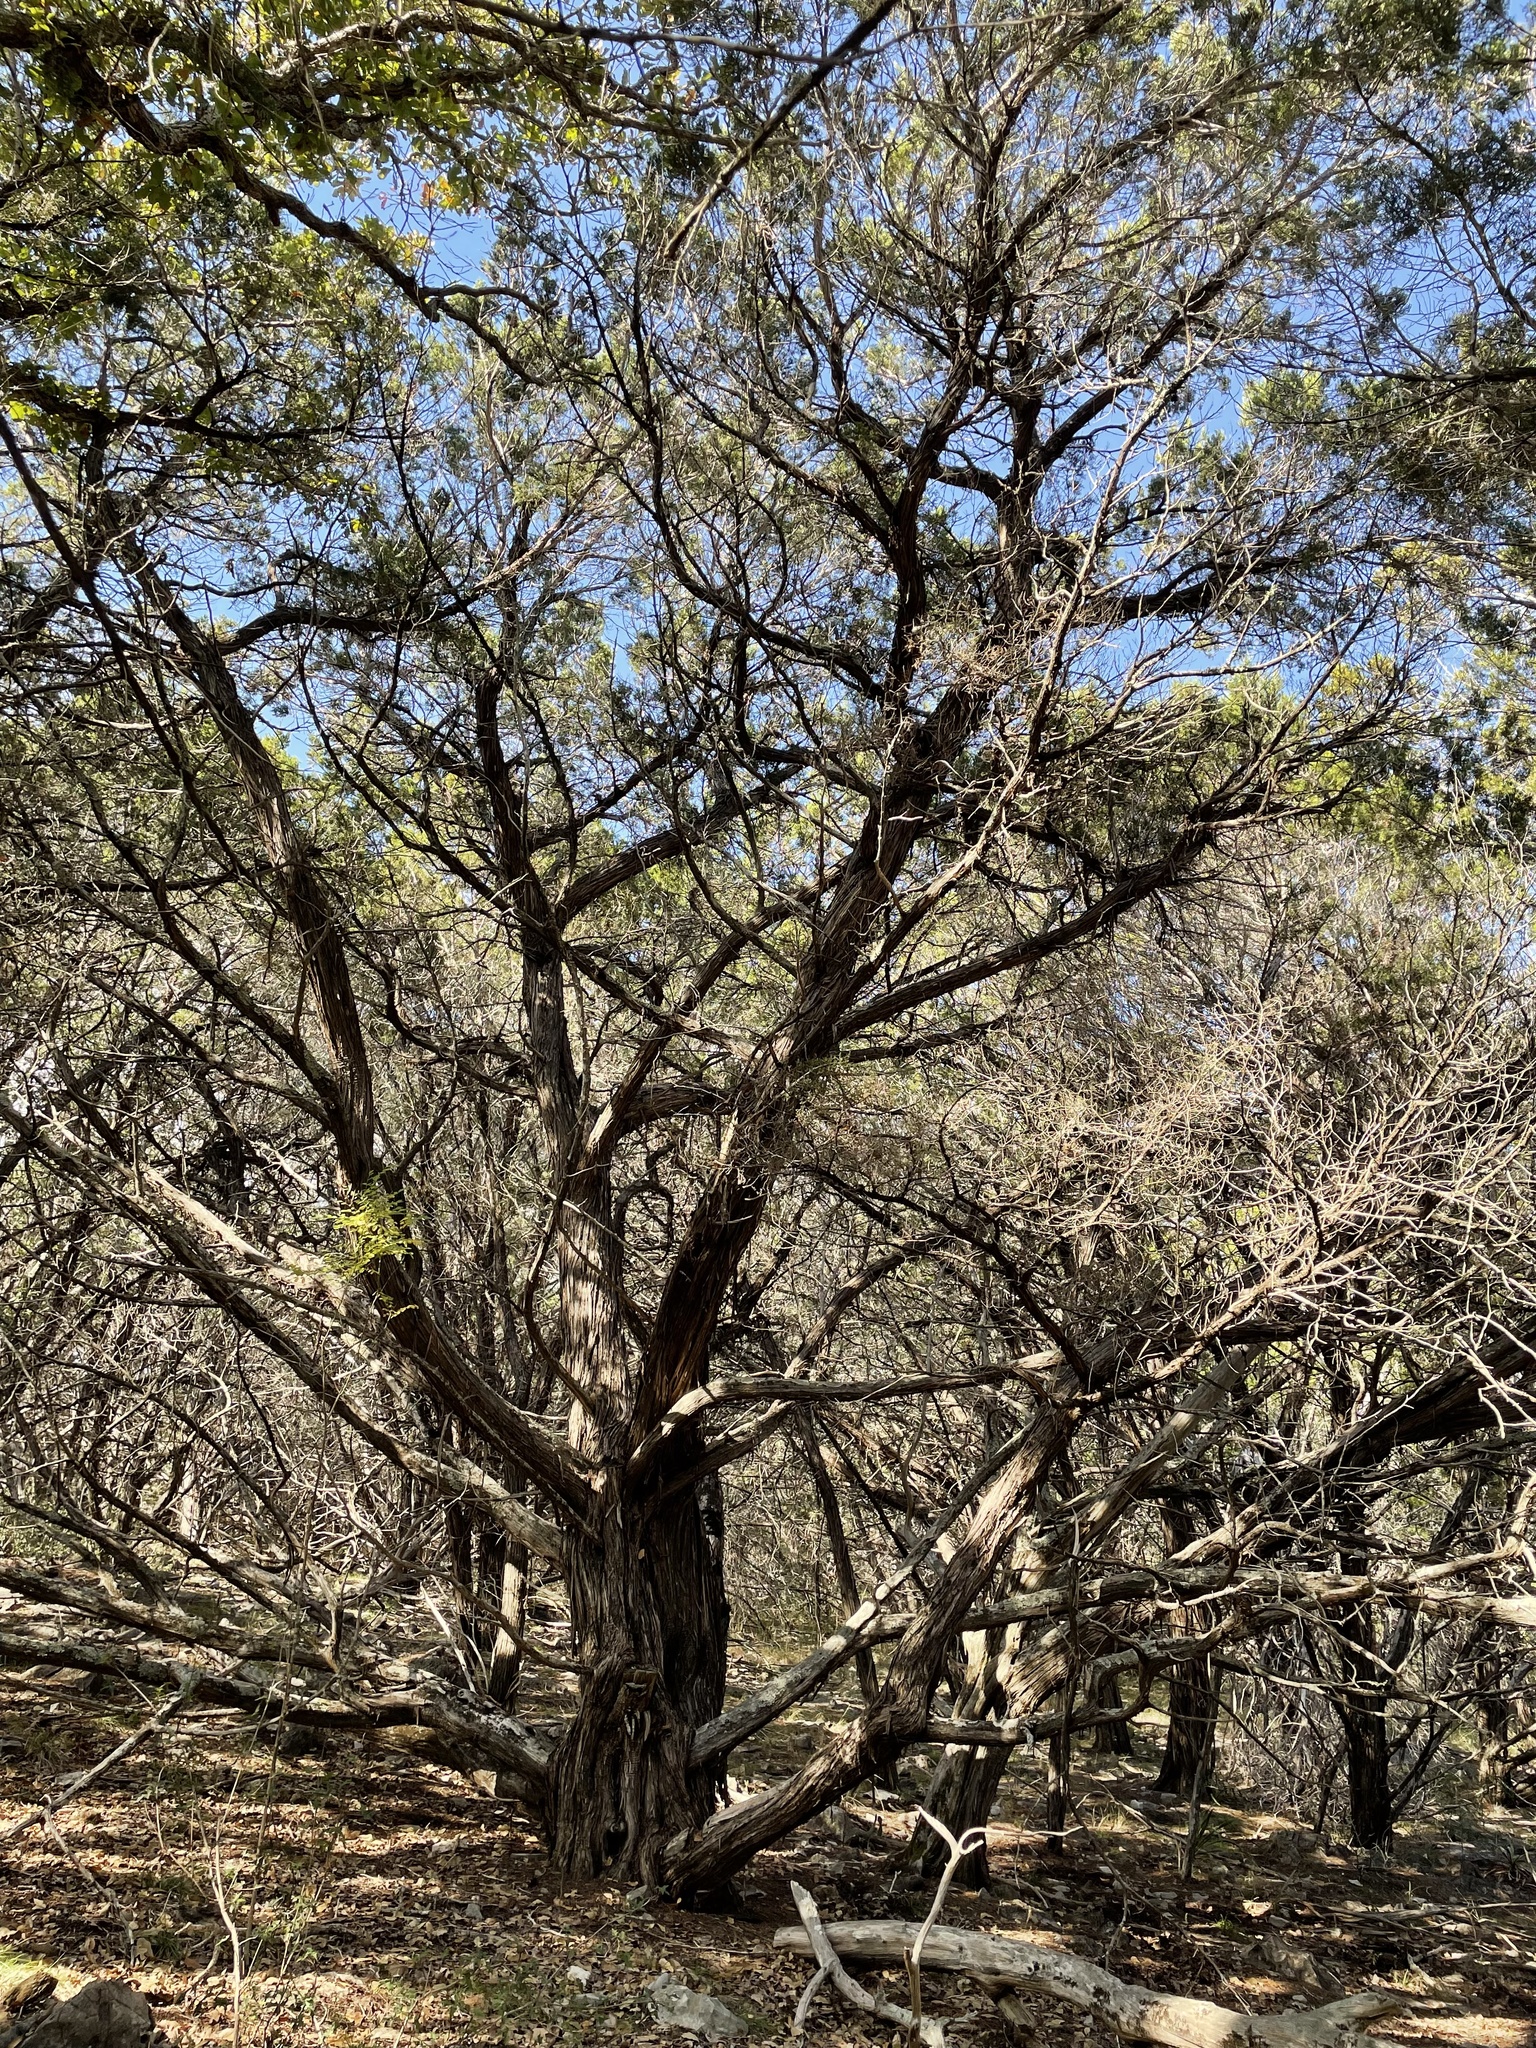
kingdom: Plantae
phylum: Tracheophyta
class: Pinopsida
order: Pinales
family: Cupressaceae
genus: Juniperus
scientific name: Juniperus ashei
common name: Mexican juniper
